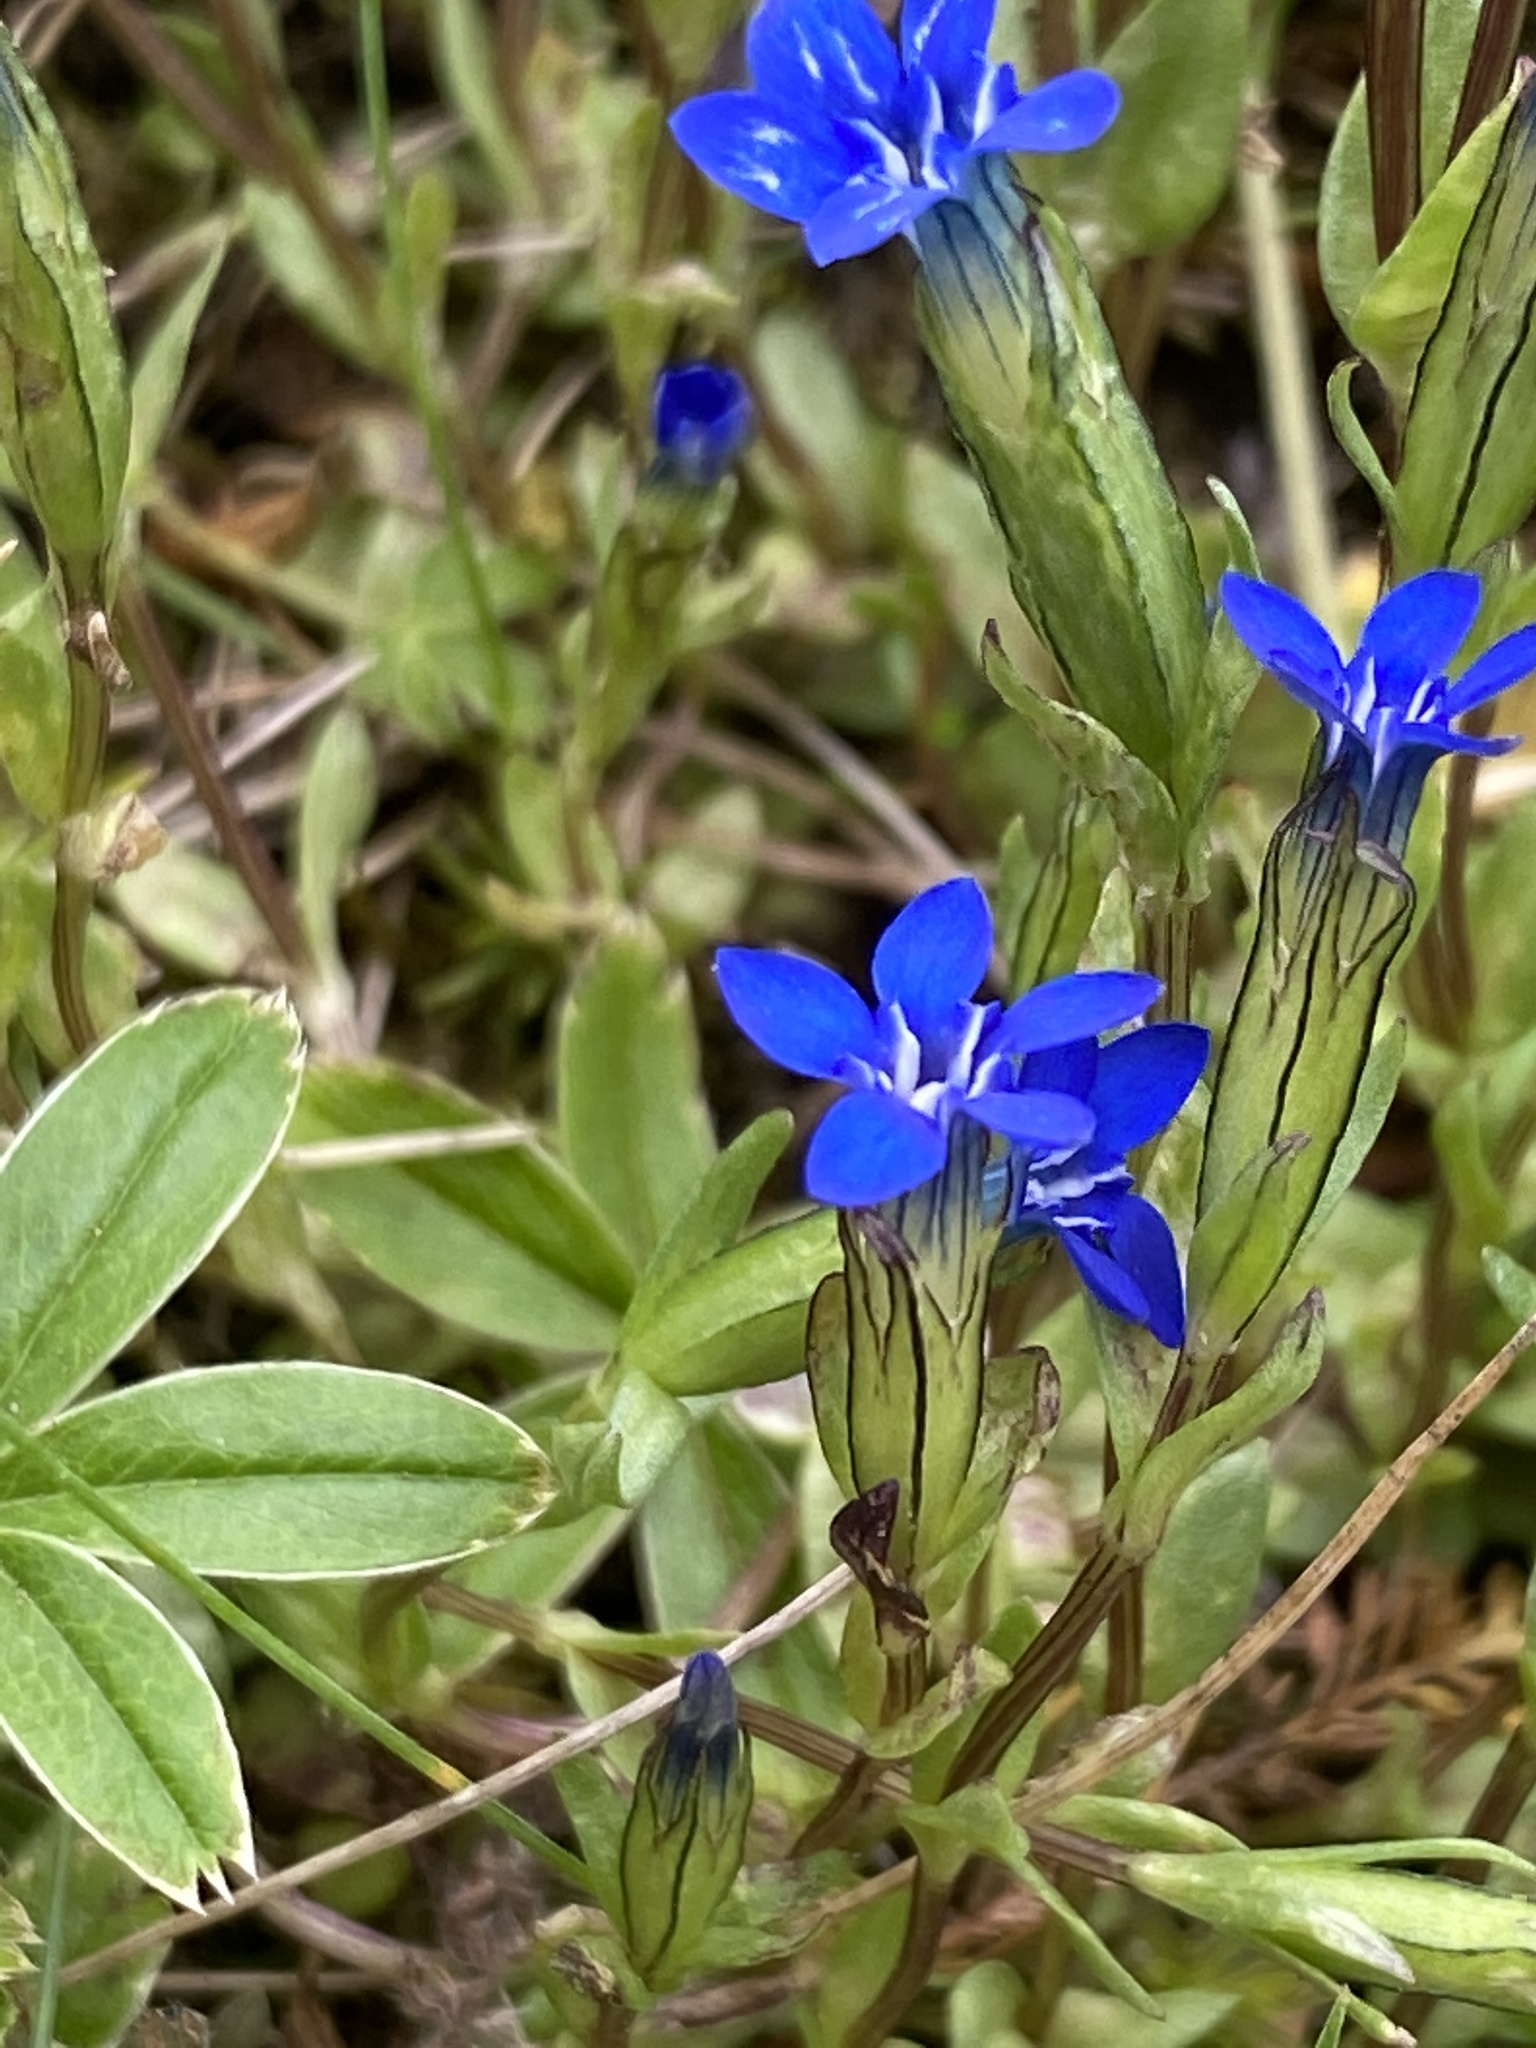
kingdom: Plantae
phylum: Tracheophyta
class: Magnoliopsida
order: Gentianales
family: Gentianaceae
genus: Gentiana
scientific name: Gentiana nivalis
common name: Alpine gentian
